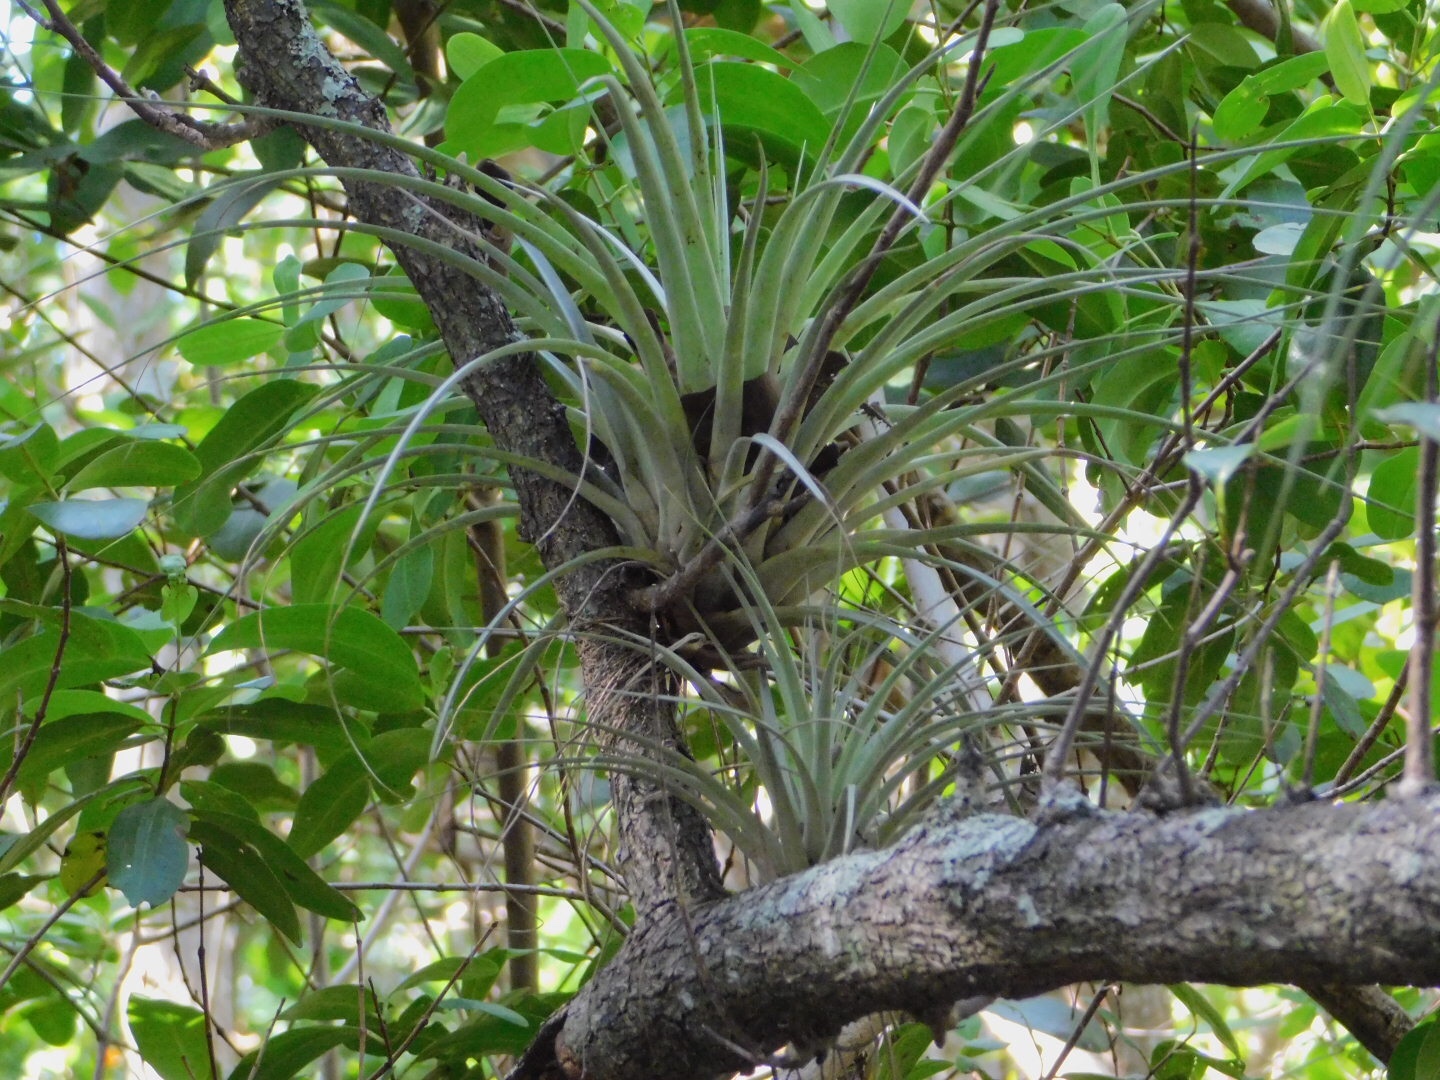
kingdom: Plantae
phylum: Tracheophyta
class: Liliopsida
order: Poales
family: Bromeliaceae
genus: Tillandsia
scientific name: Tillandsia fasciculata
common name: Giant airplant
